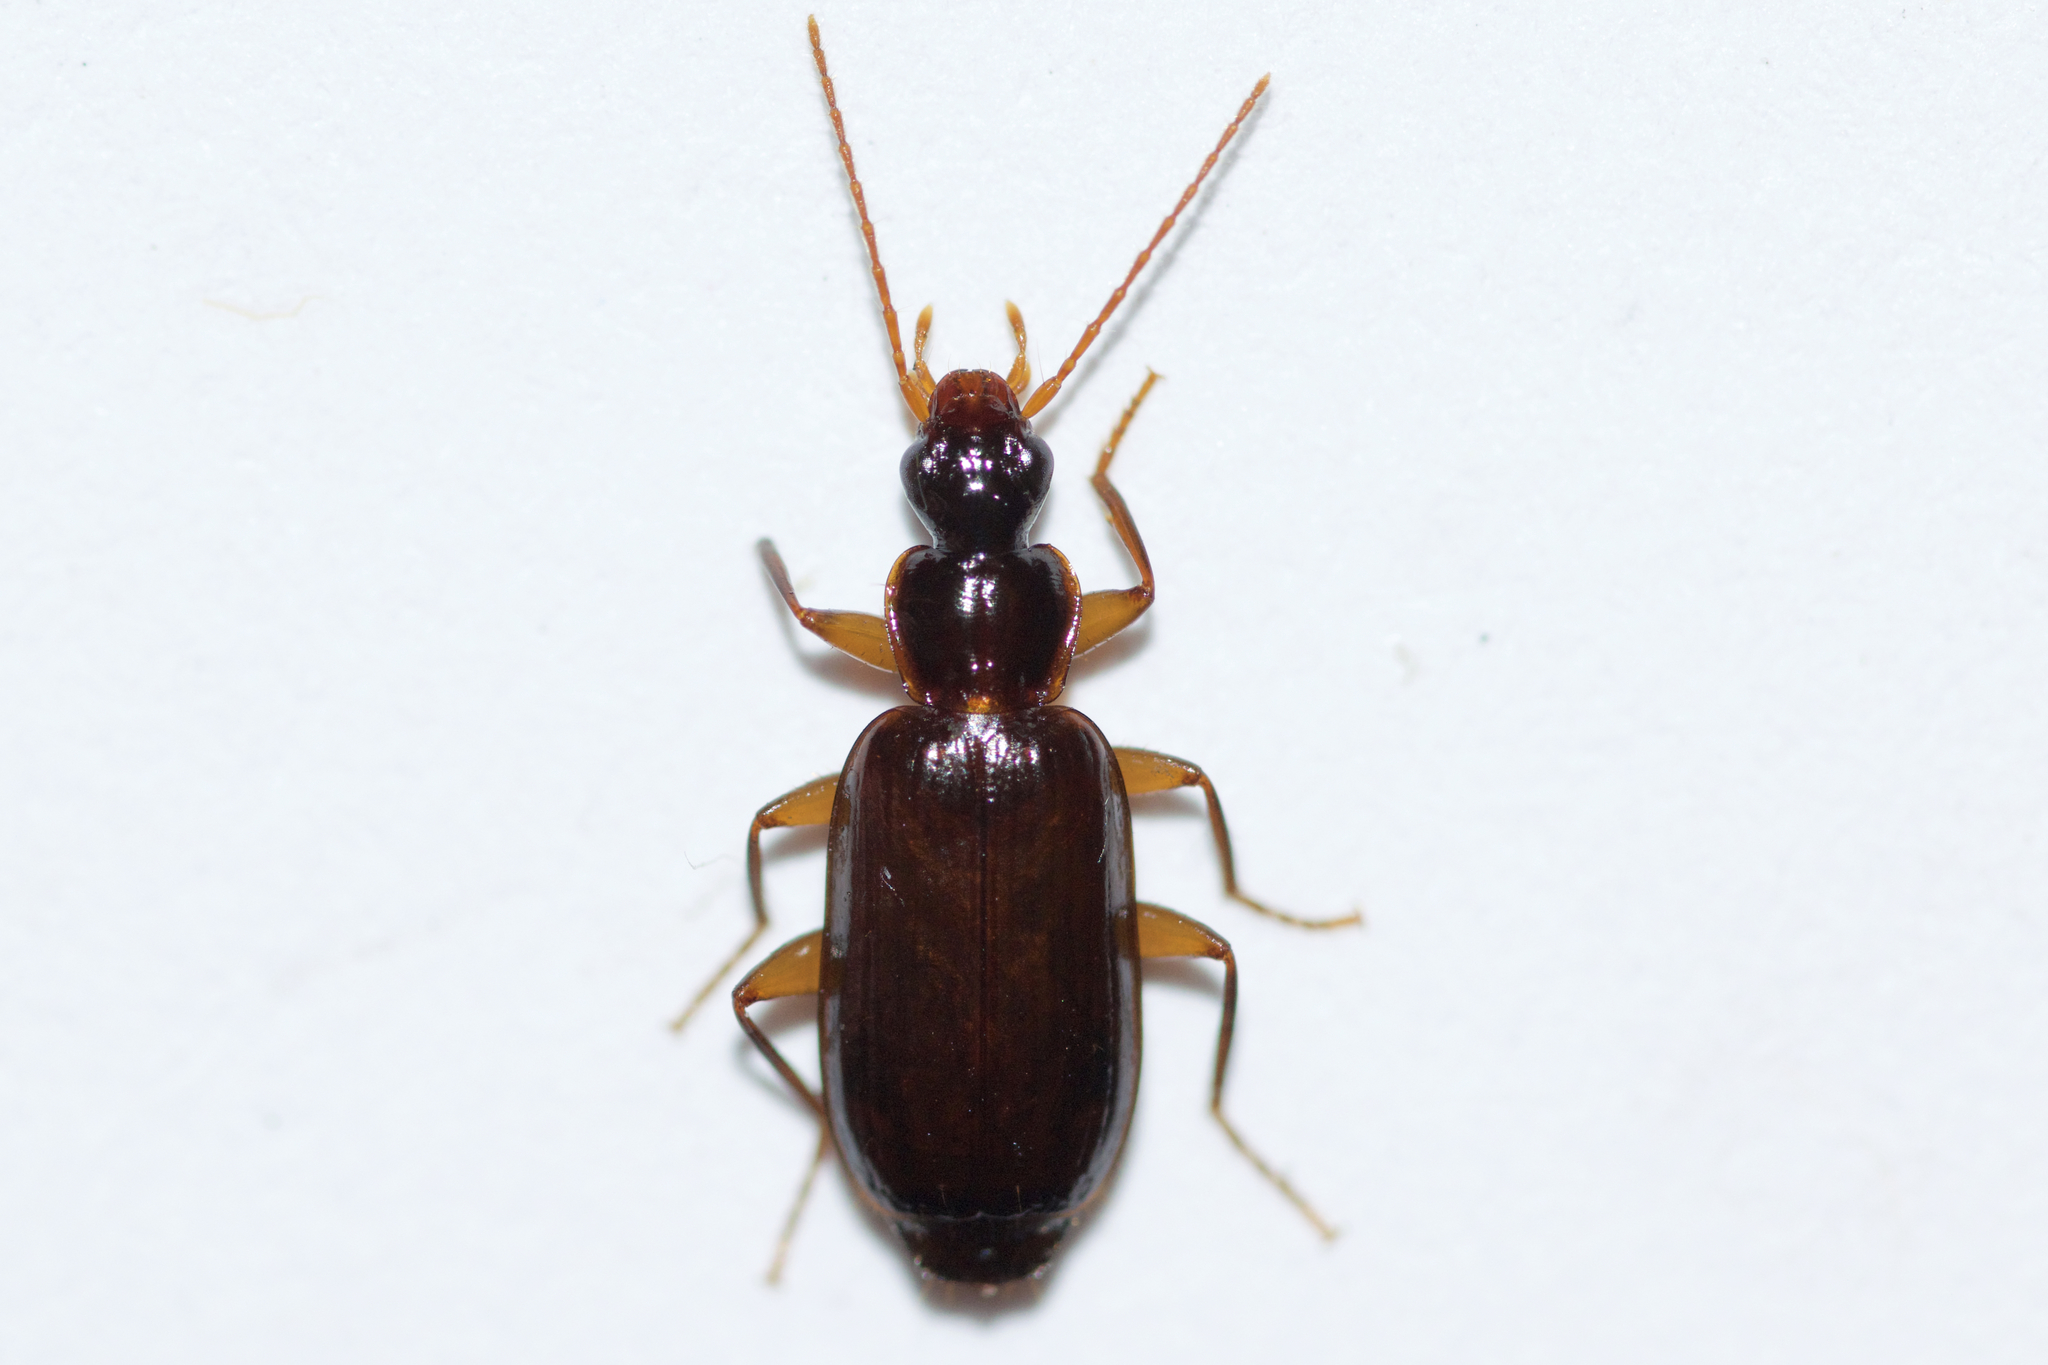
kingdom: Animalia
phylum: Arthropoda
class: Insecta
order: Coleoptera
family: Carabidae
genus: Dromius
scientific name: Dromius piceus
